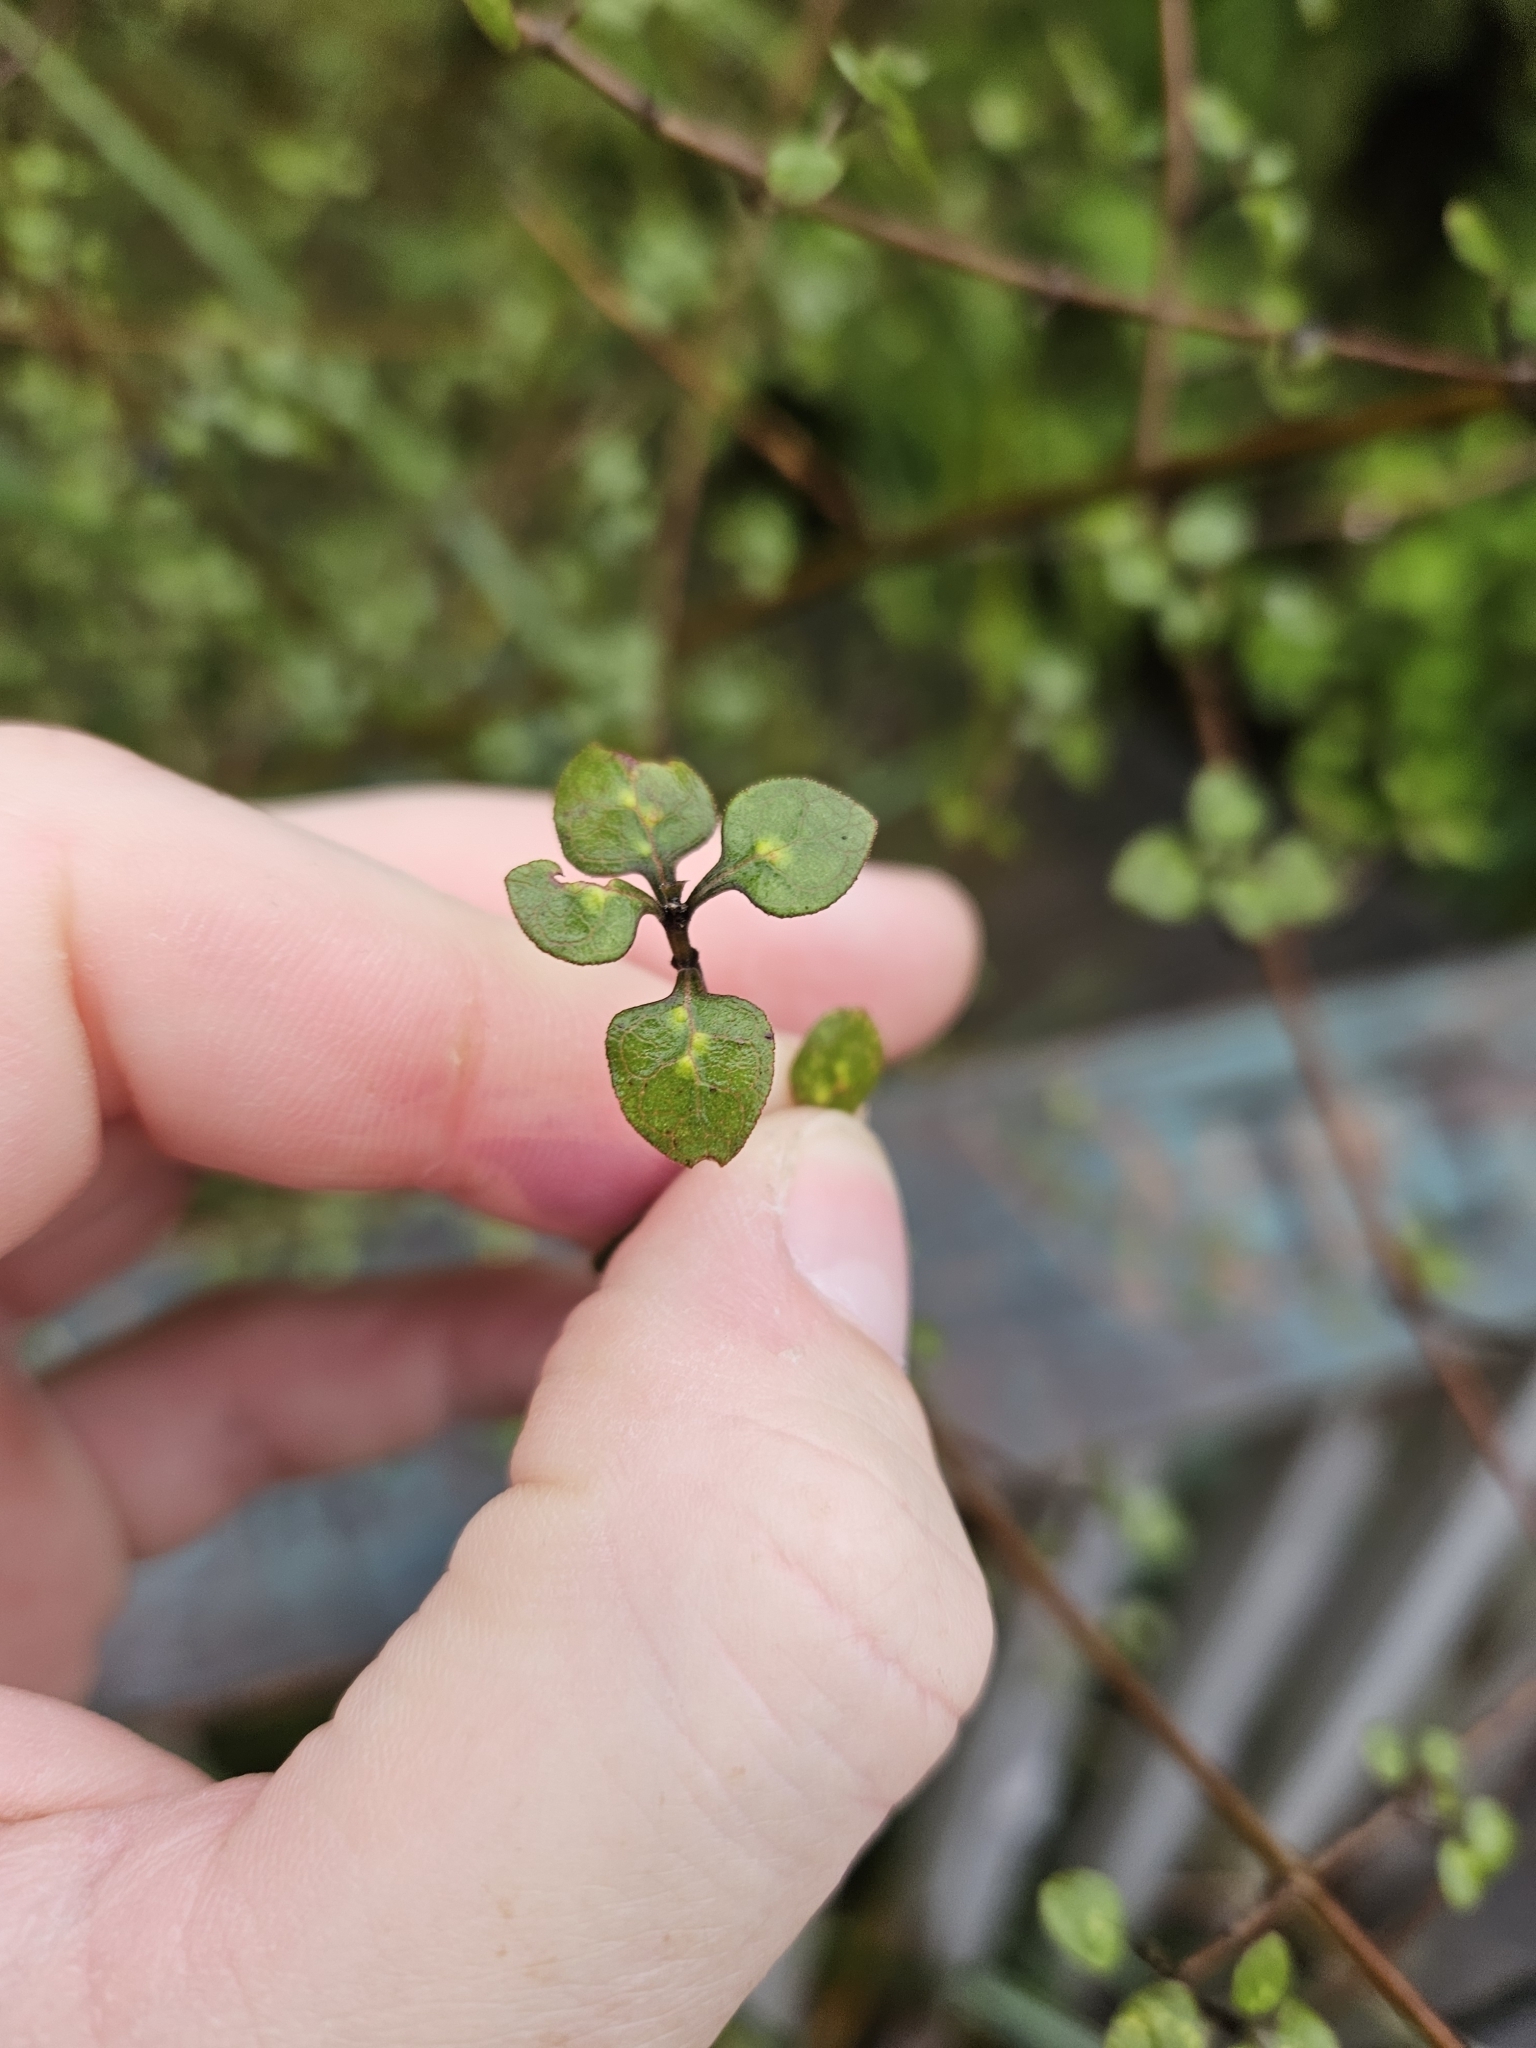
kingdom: Plantae
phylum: Tracheophyta
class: Magnoliopsida
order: Gentianales
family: Rubiaceae
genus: Coprosma
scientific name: Coprosma tenuicaulis
